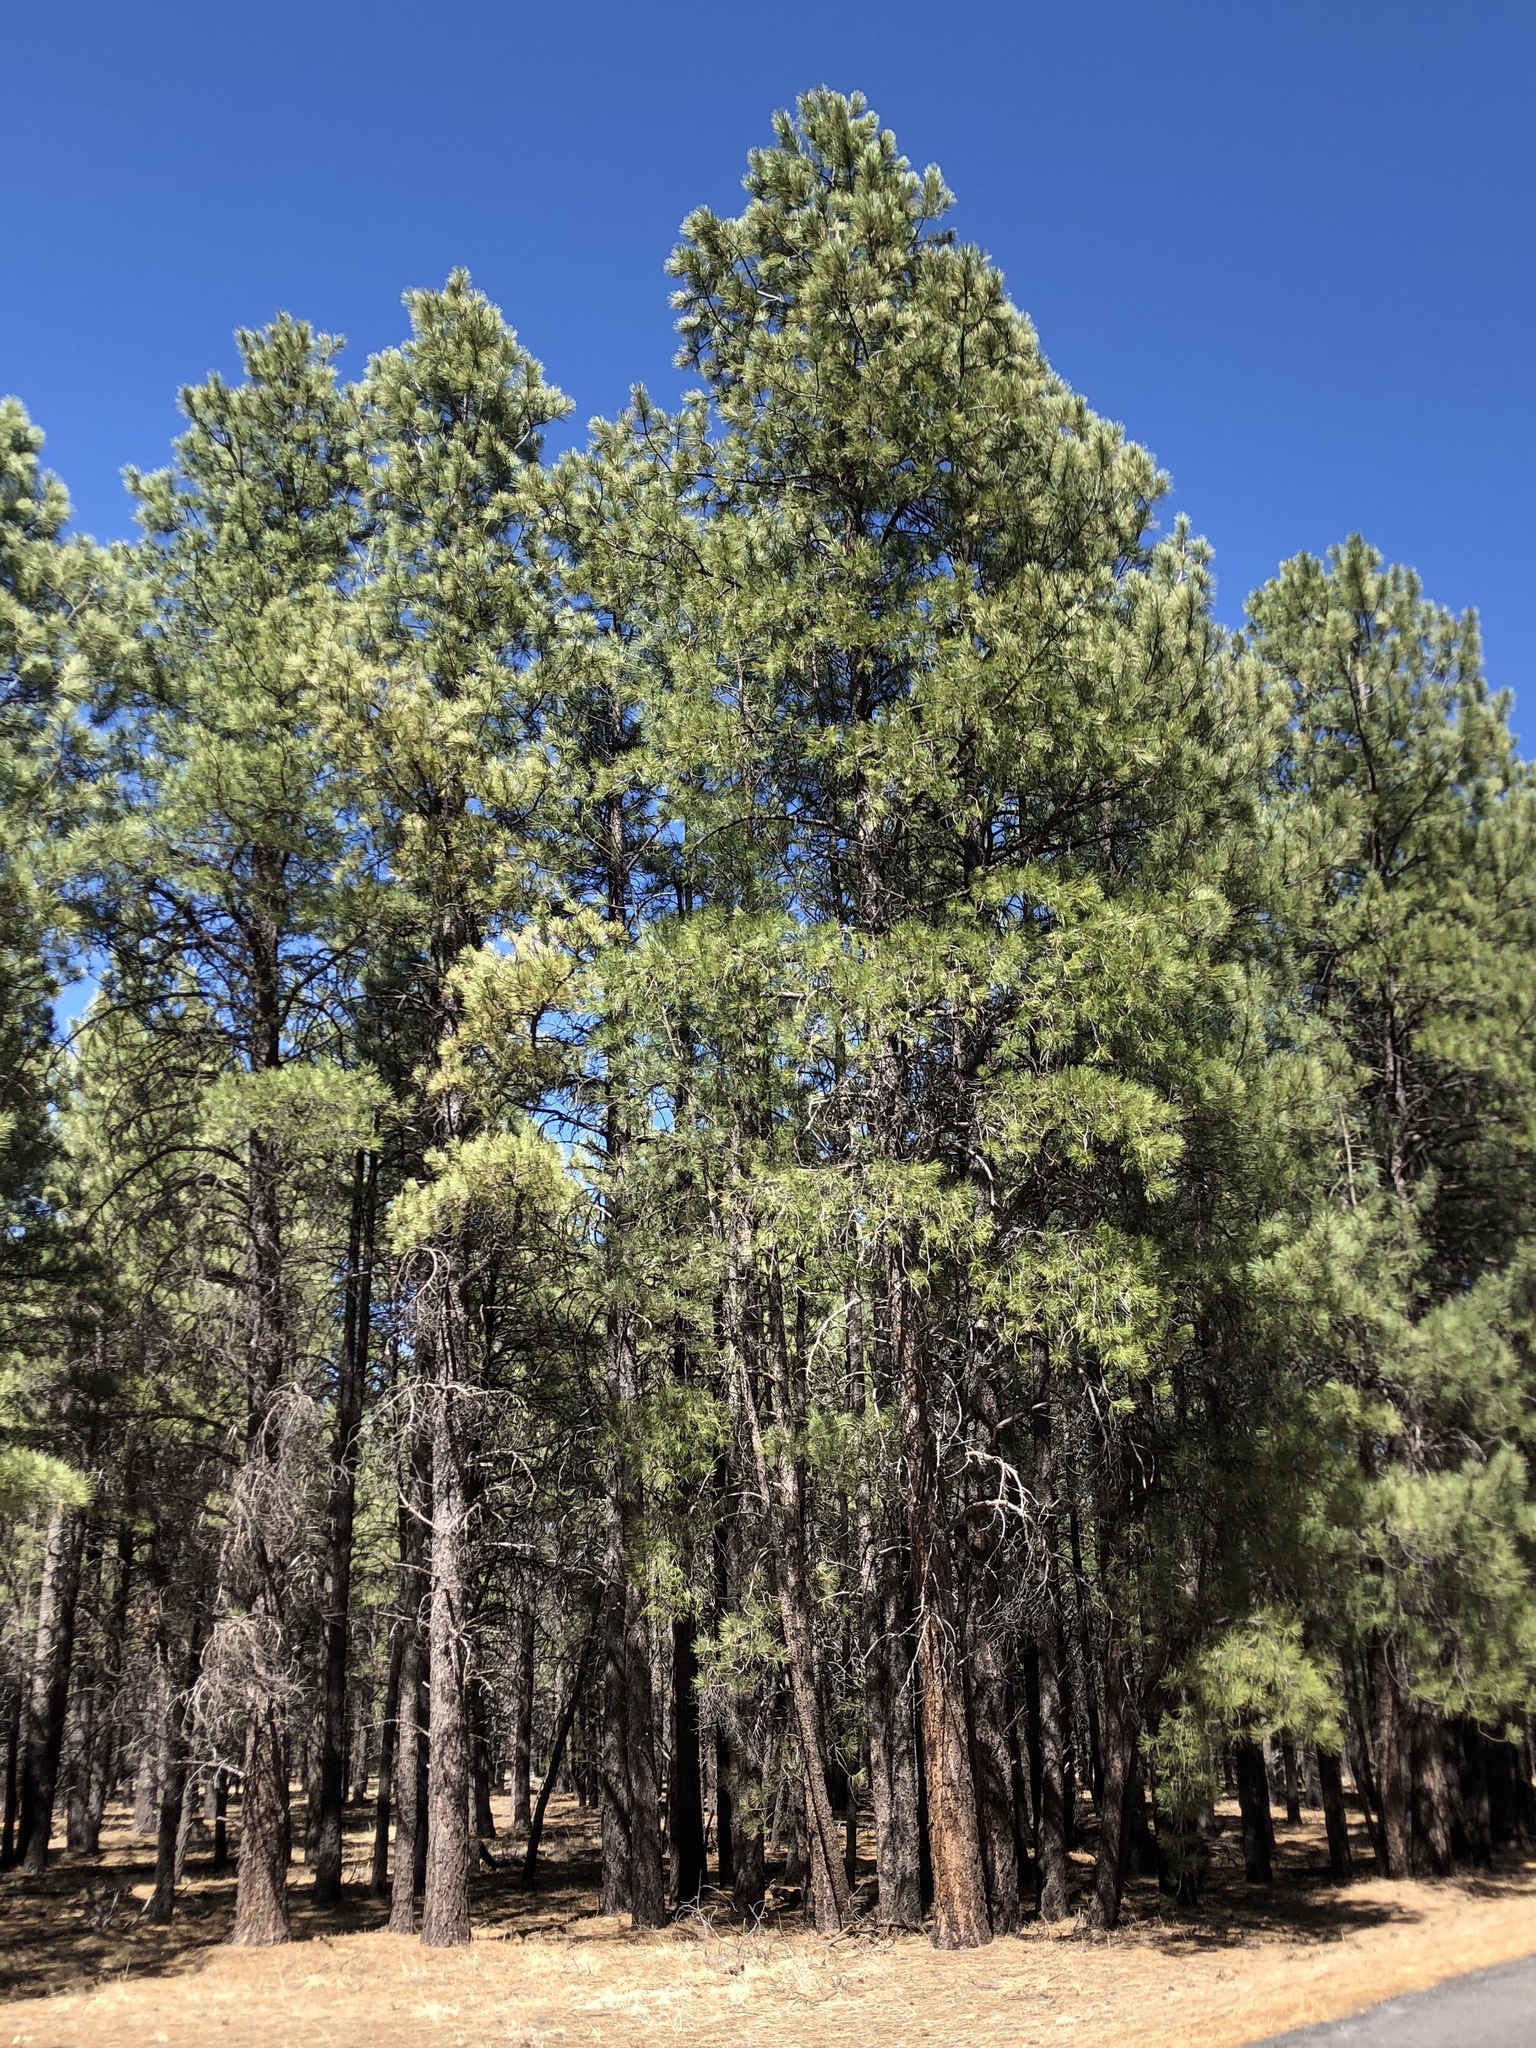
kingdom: Plantae
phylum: Tracheophyta
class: Pinopsida
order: Pinales
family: Pinaceae
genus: Pinus
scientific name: Pinus ponderosa
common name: Western yellow-pine
